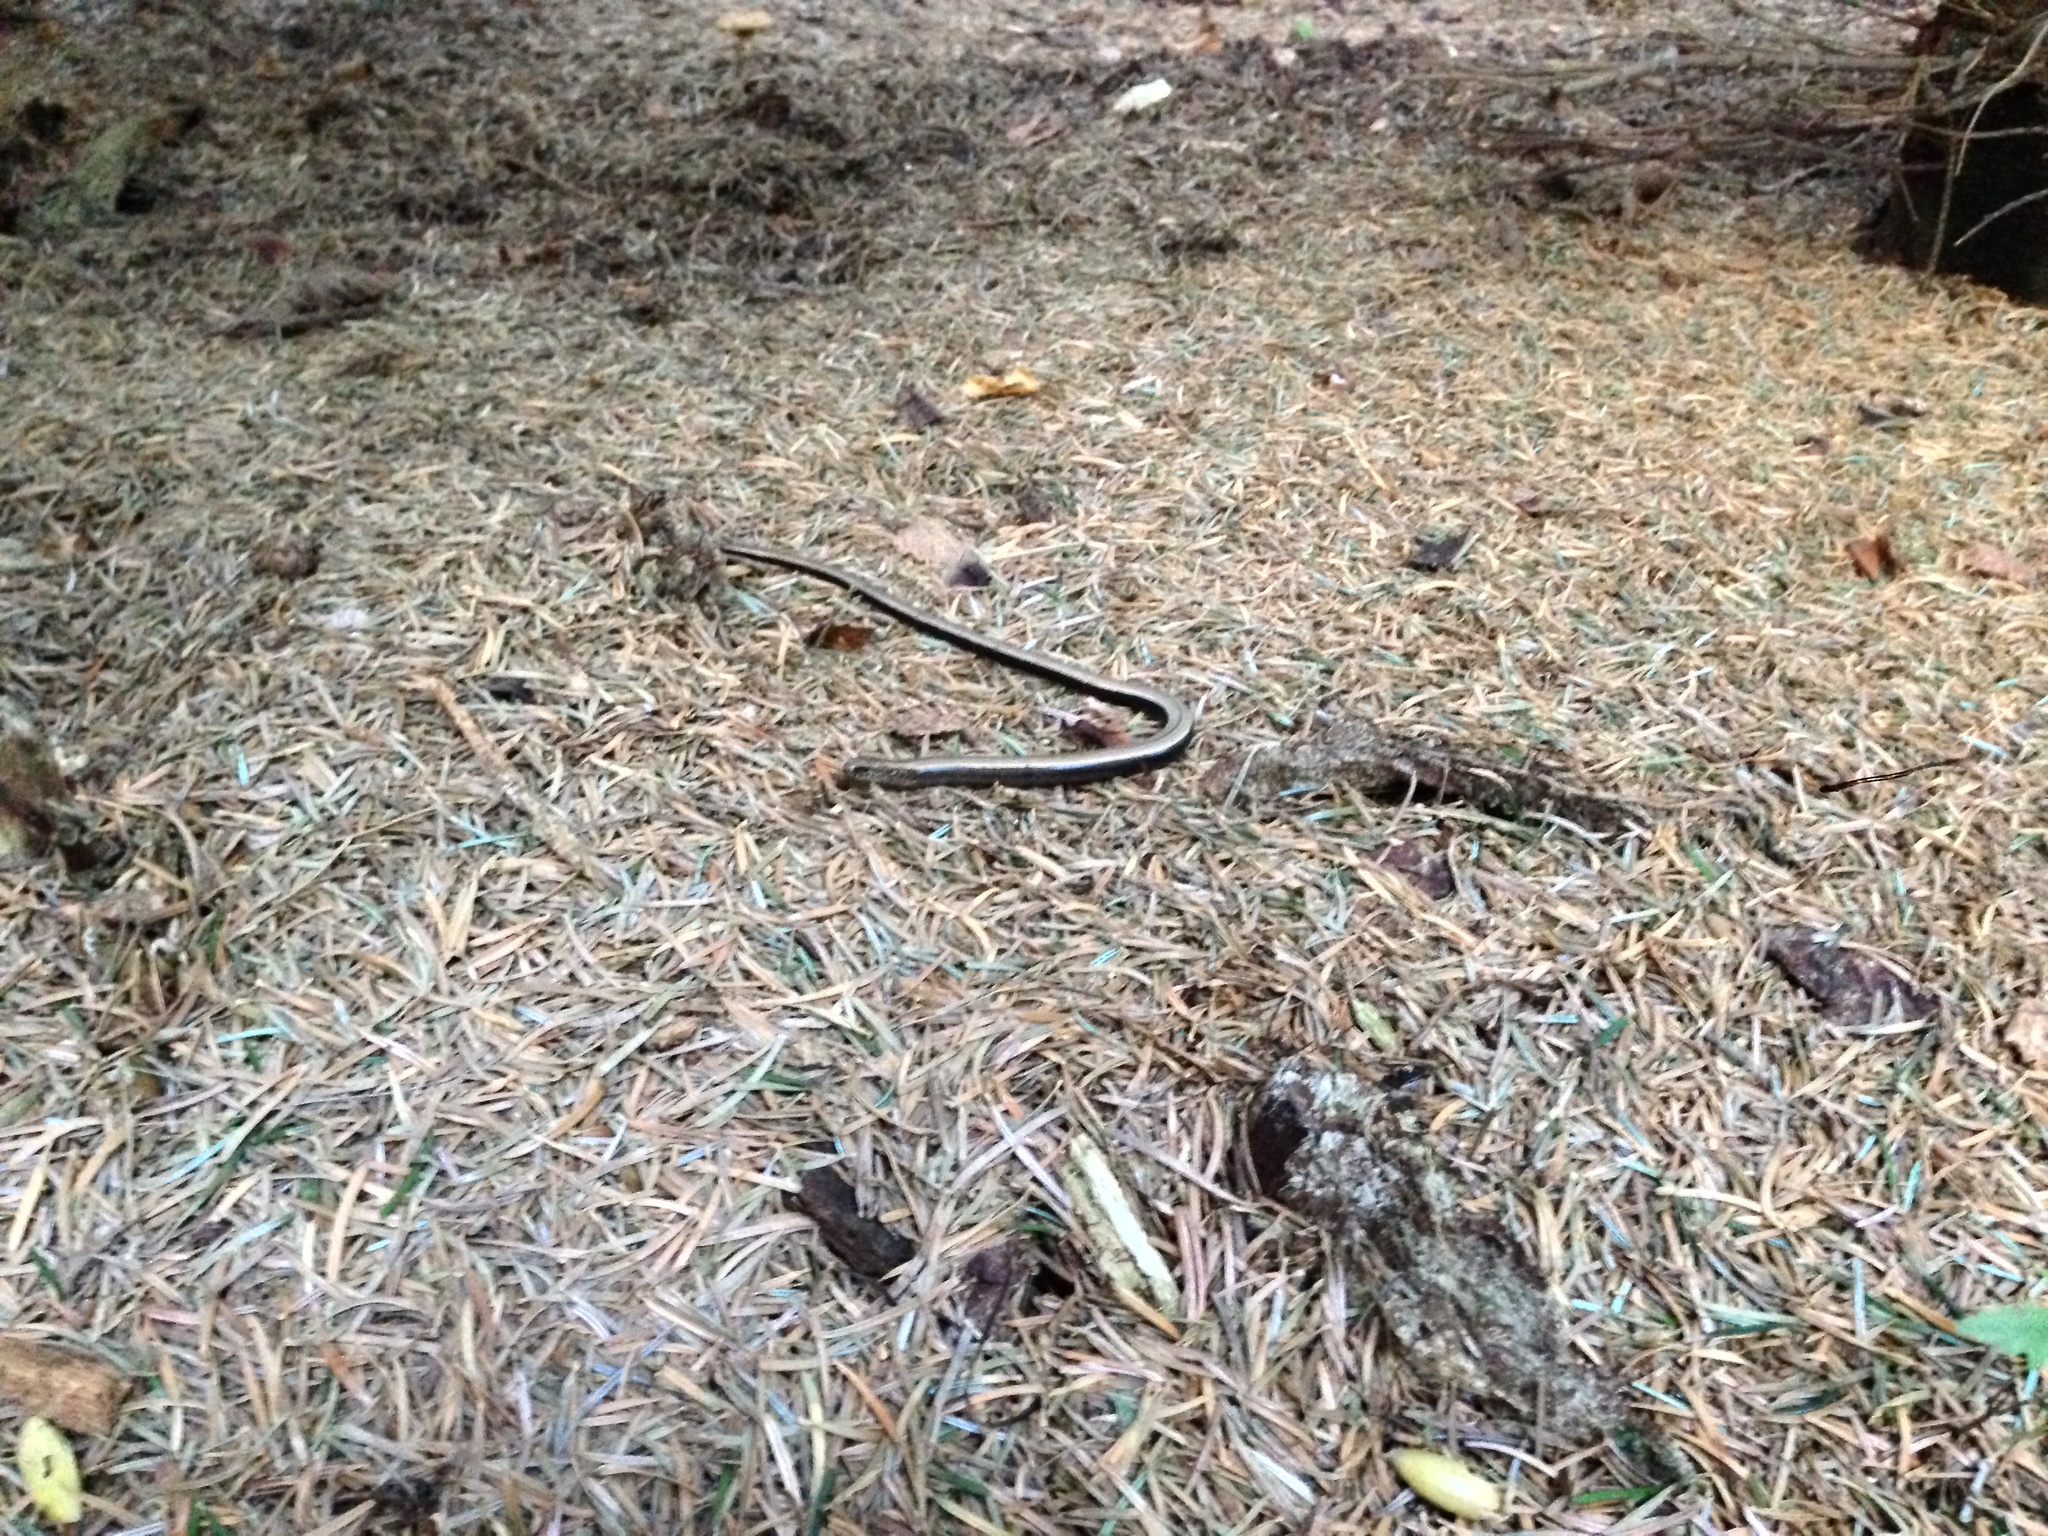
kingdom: Animalia
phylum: Chordata
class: Squamata
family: Anguidae
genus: Anguis
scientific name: Anguis fragilis
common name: Slow worm
